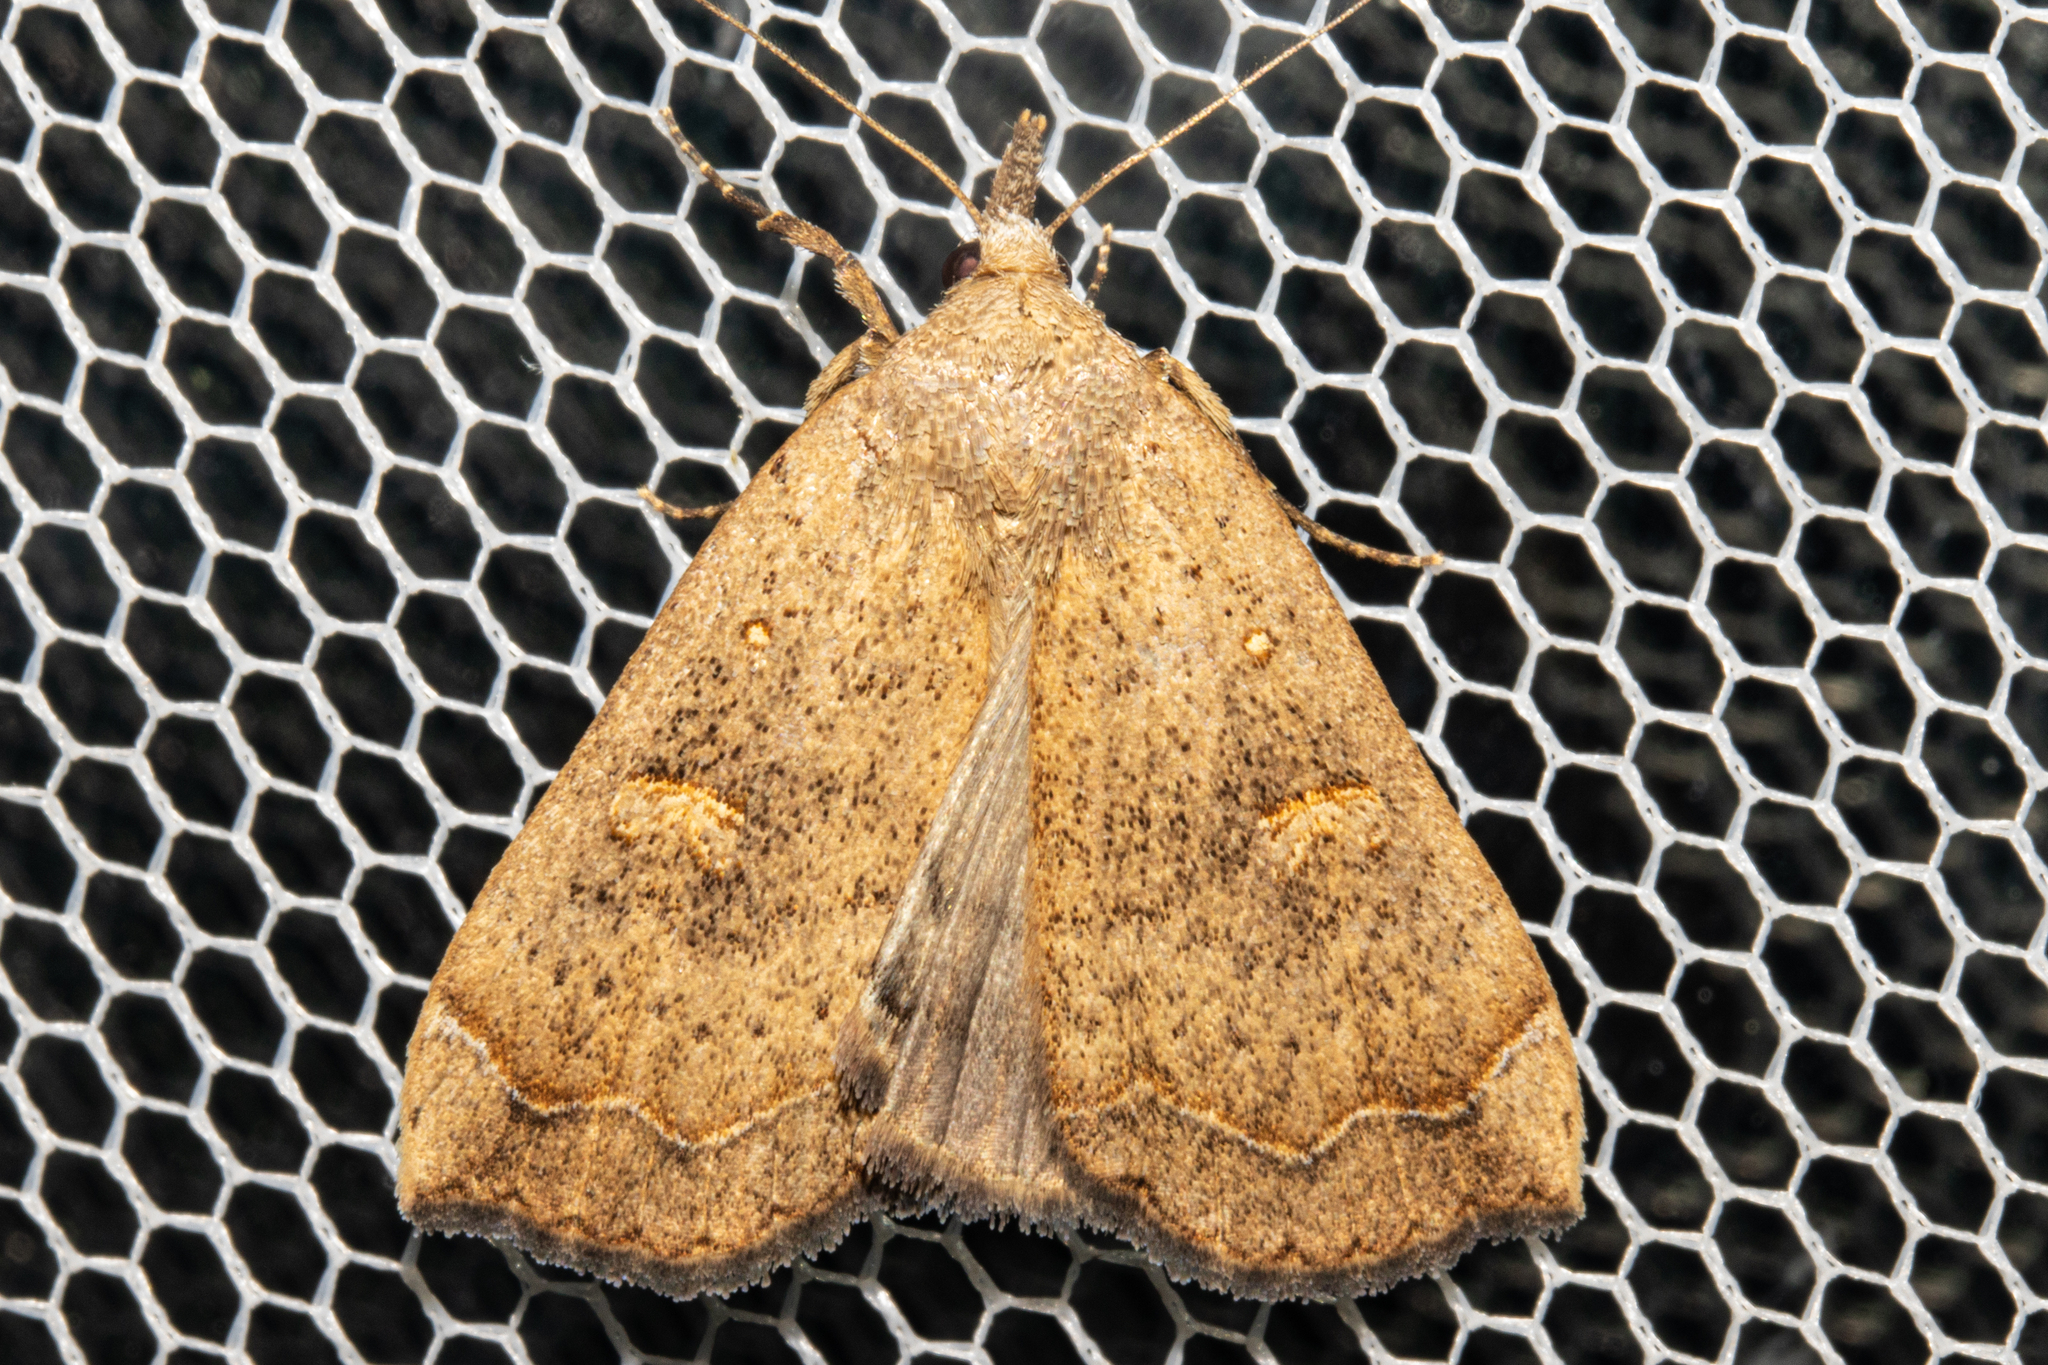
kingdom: Animalia
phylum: Arthropoda
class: Insecta
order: Lepidoptera
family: Erebidae
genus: Rhapsa
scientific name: Rhapsa scotosialis
